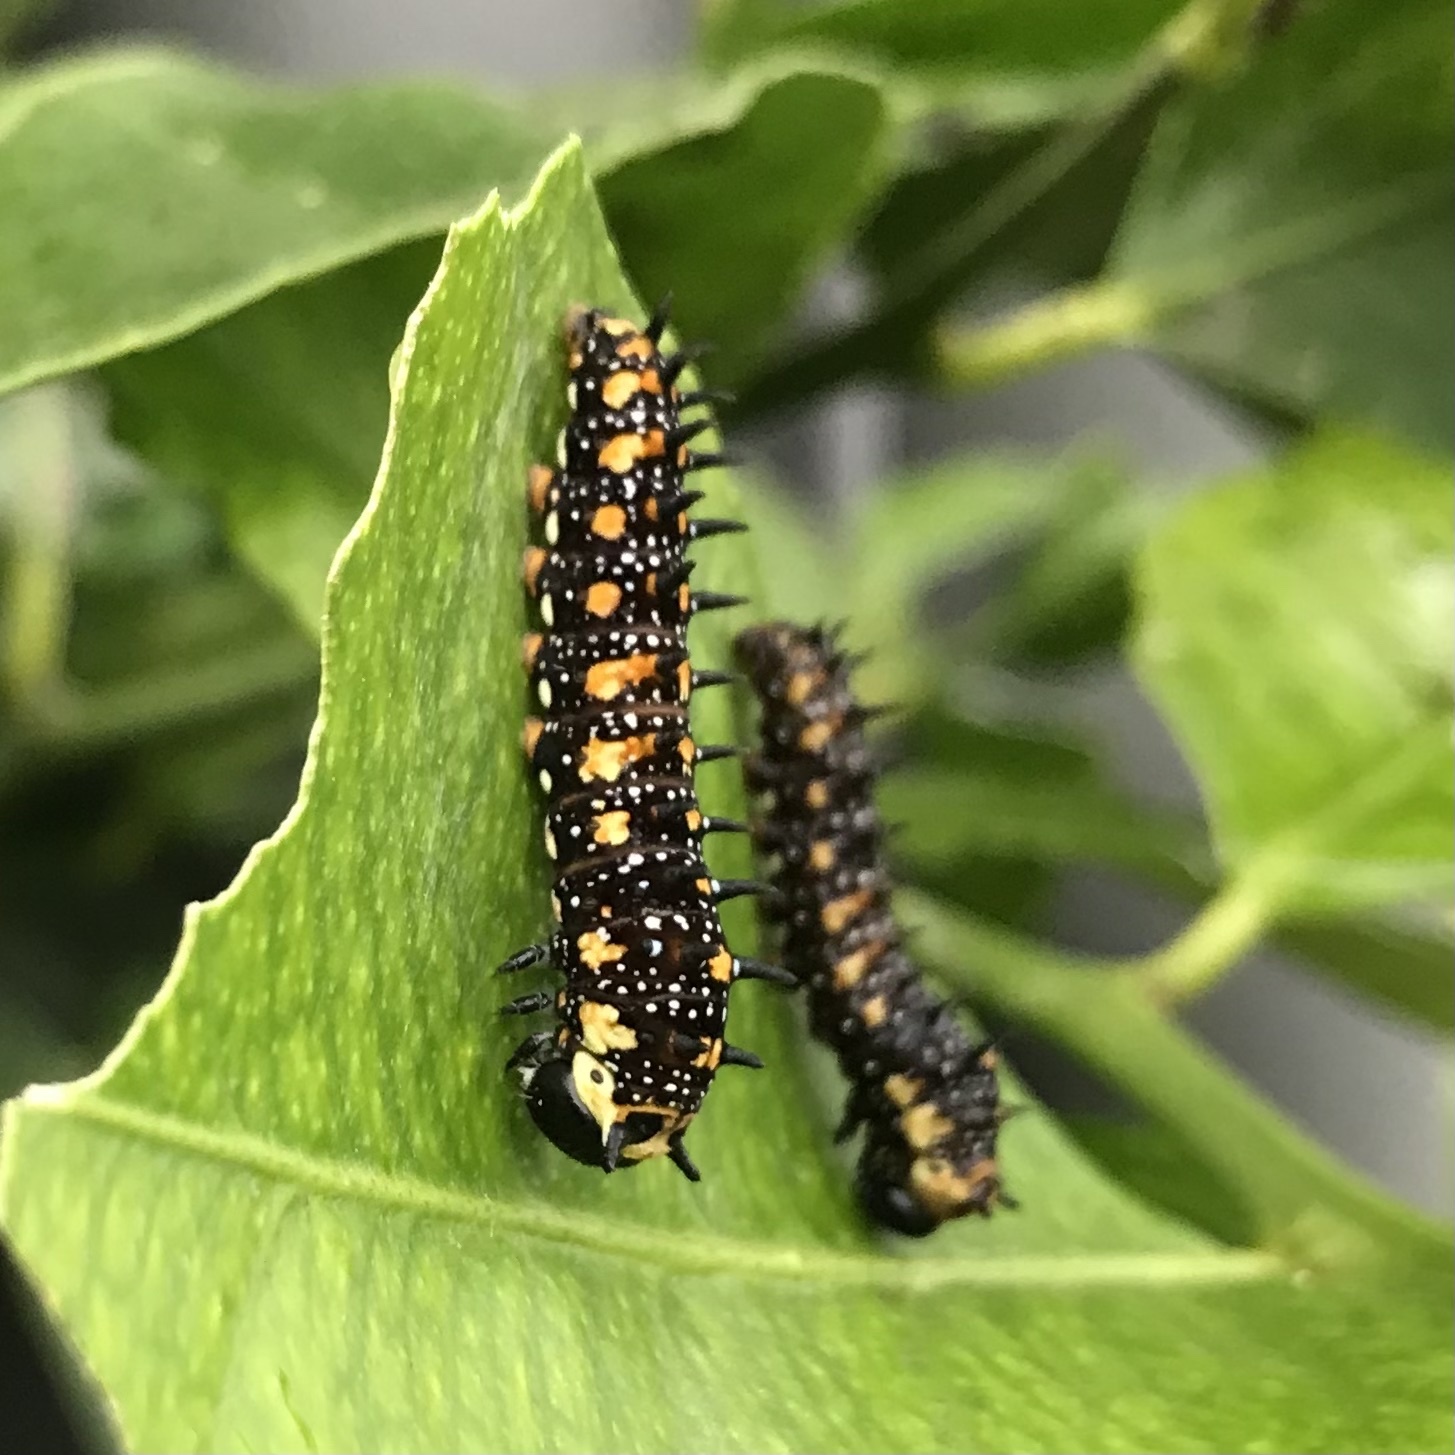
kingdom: Animalia
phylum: Arthropoda
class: Insecta
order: Lepidoptera
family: Papilionidae
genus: Papilio
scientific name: Papilio anactus
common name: Dingy swallowtail
